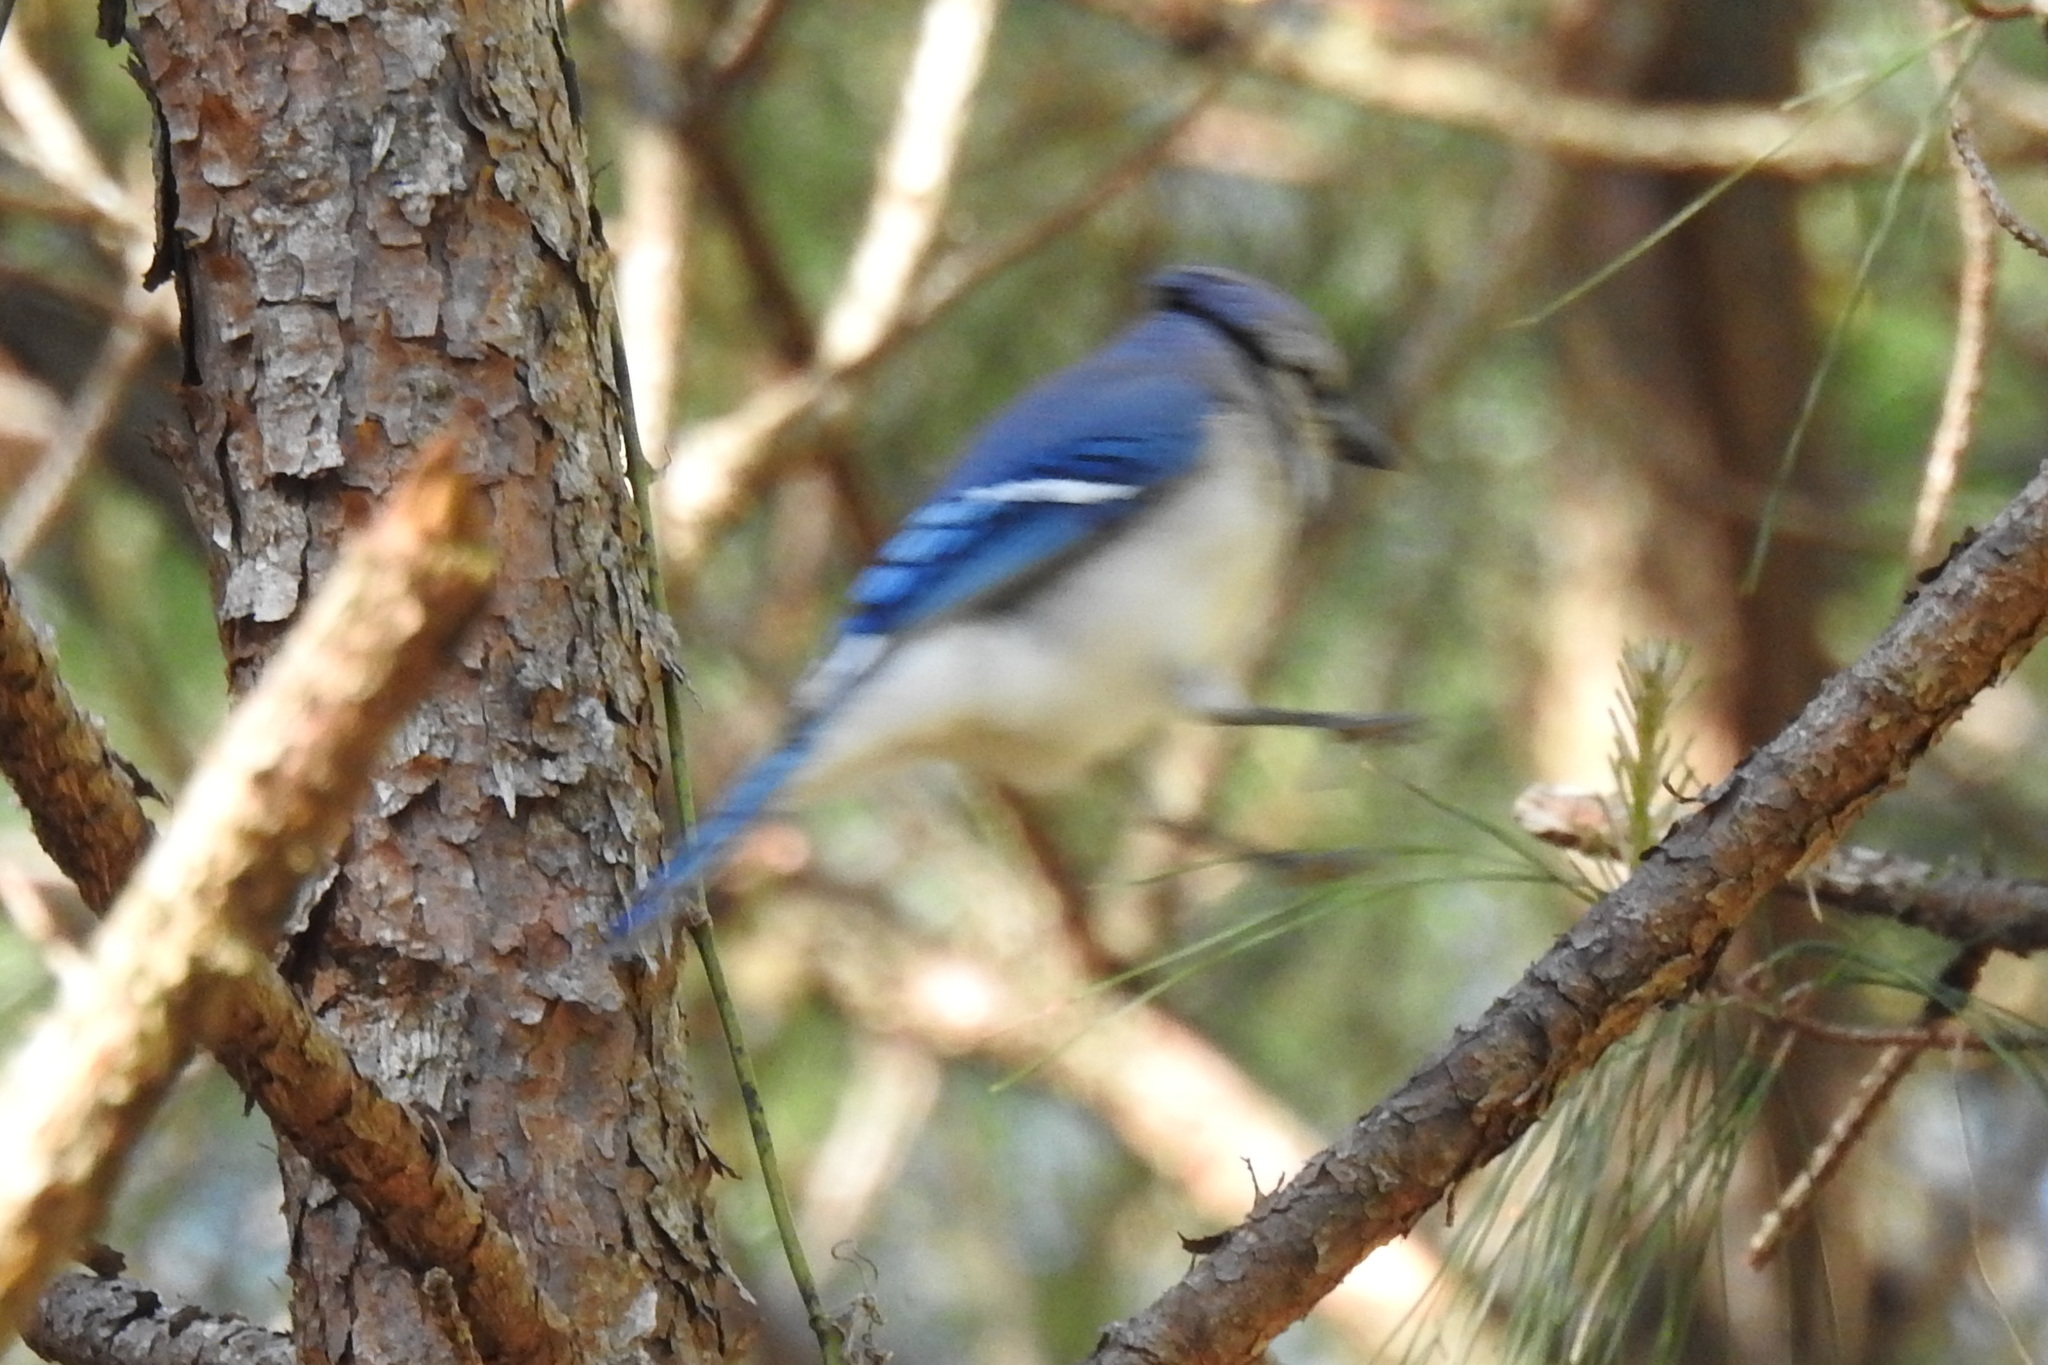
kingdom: Animalia
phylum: Chordata
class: Aves
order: Passeriformes
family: Corvidae
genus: Cyanocitta
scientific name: Cyanocitta cristata
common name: Blue jay
